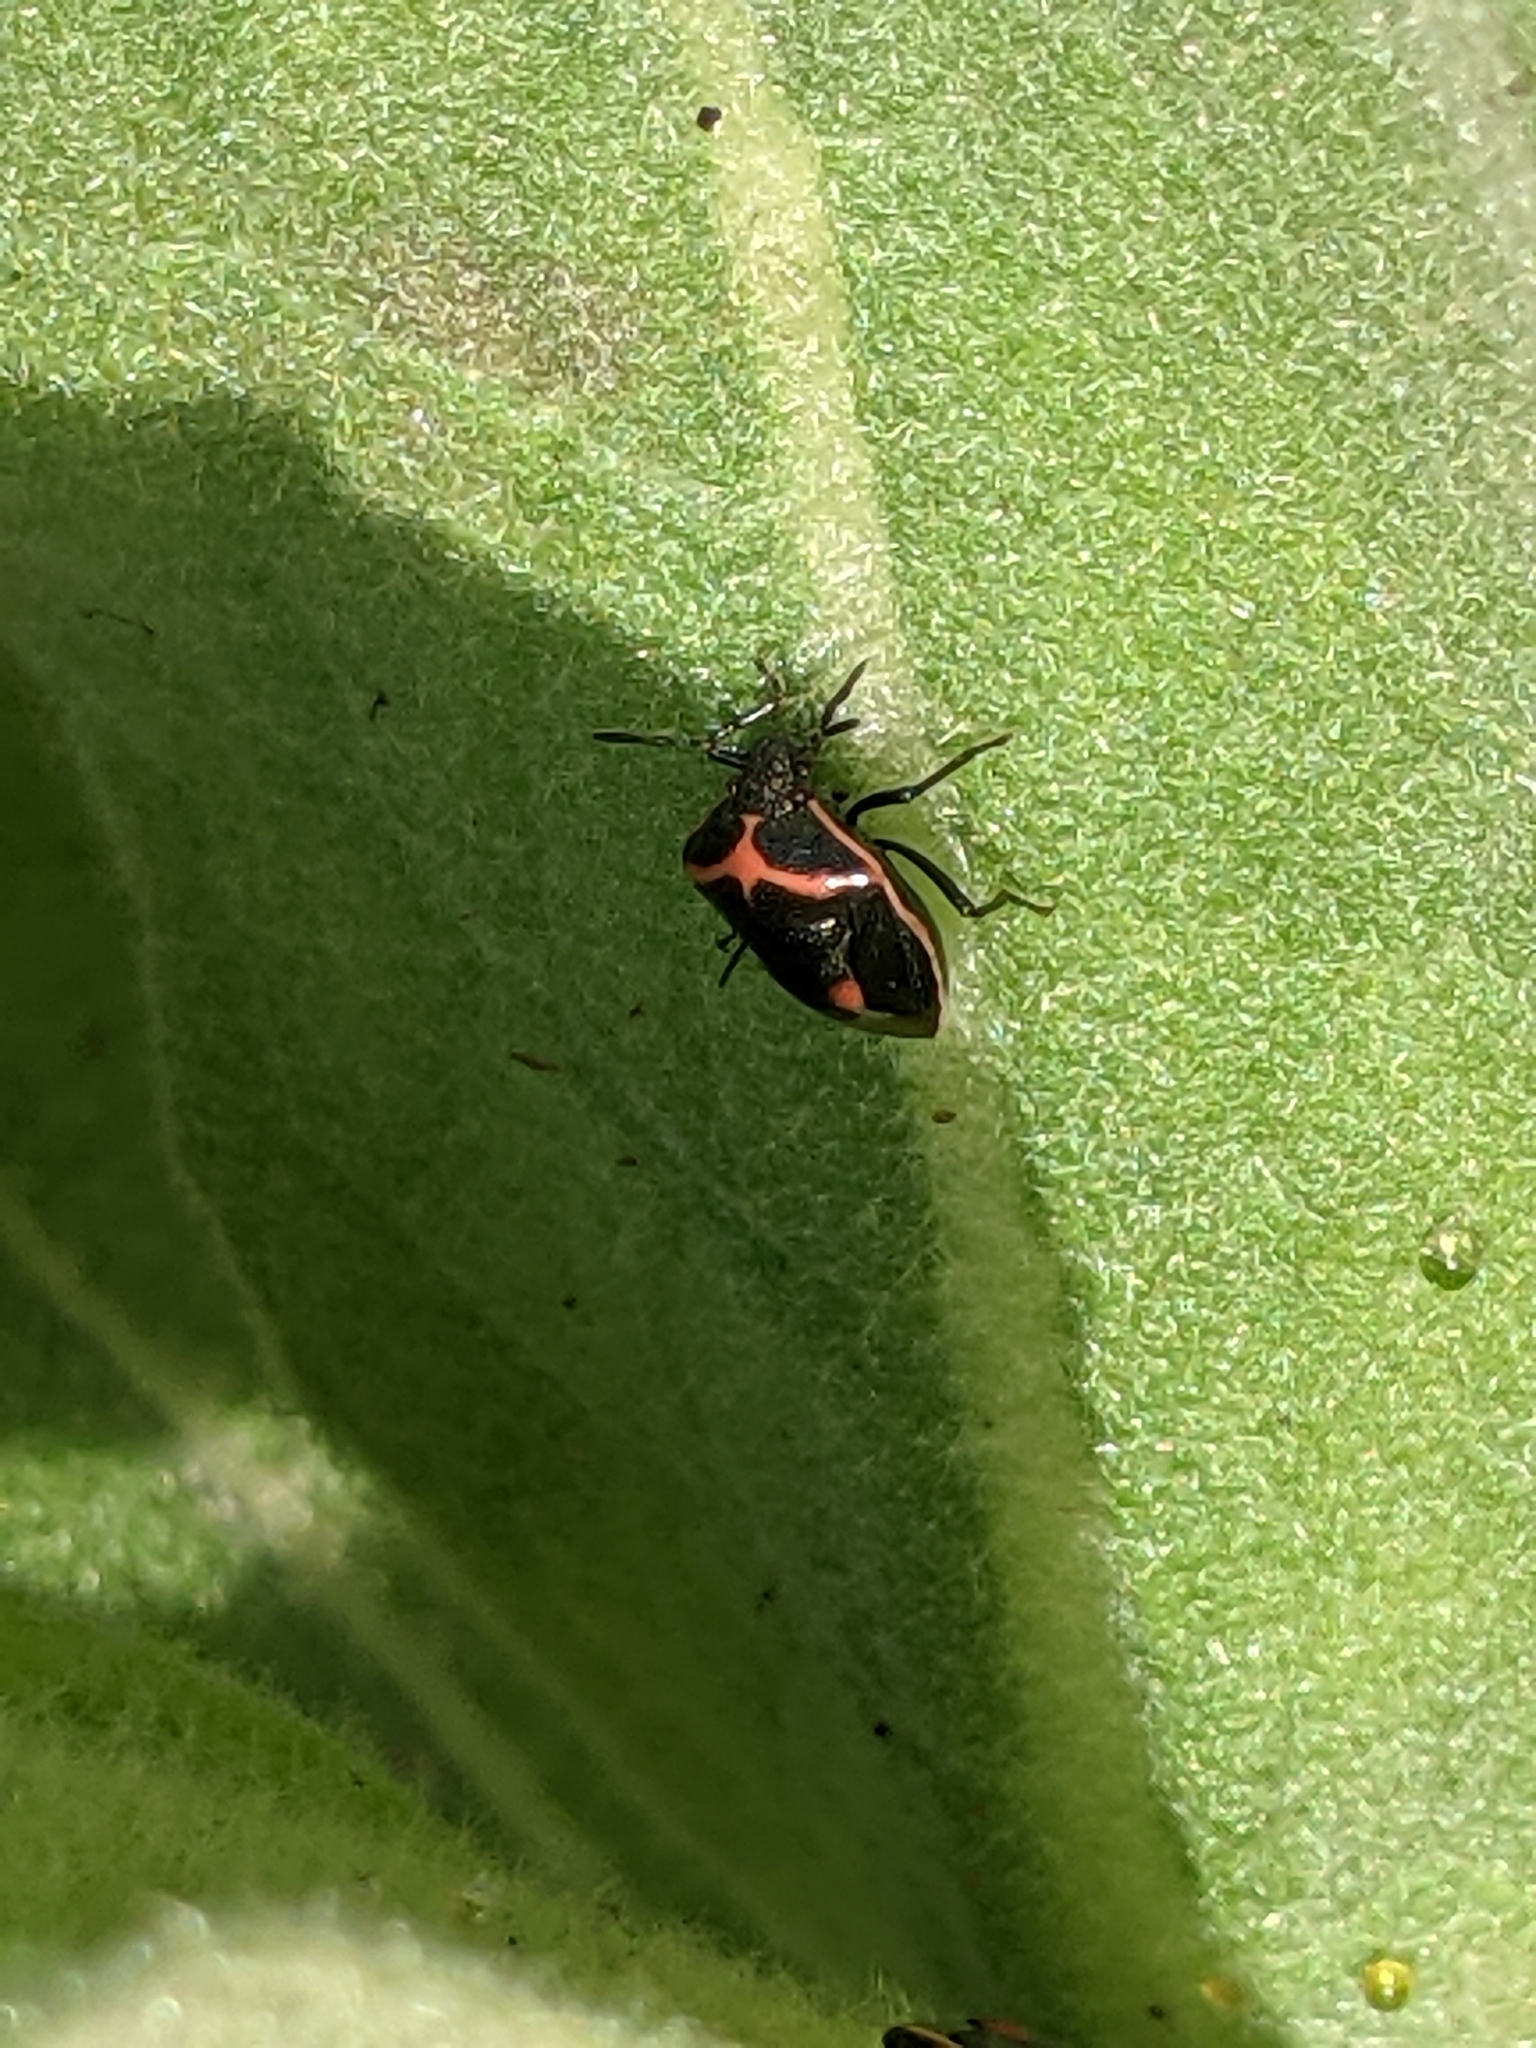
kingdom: Animalia
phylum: Arthropoda
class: Insecta
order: Hemiptera
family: Pentatomidae
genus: Cosmopepla
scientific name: Cosmopepla lintneriana
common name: Twice-stabbed stink bug
